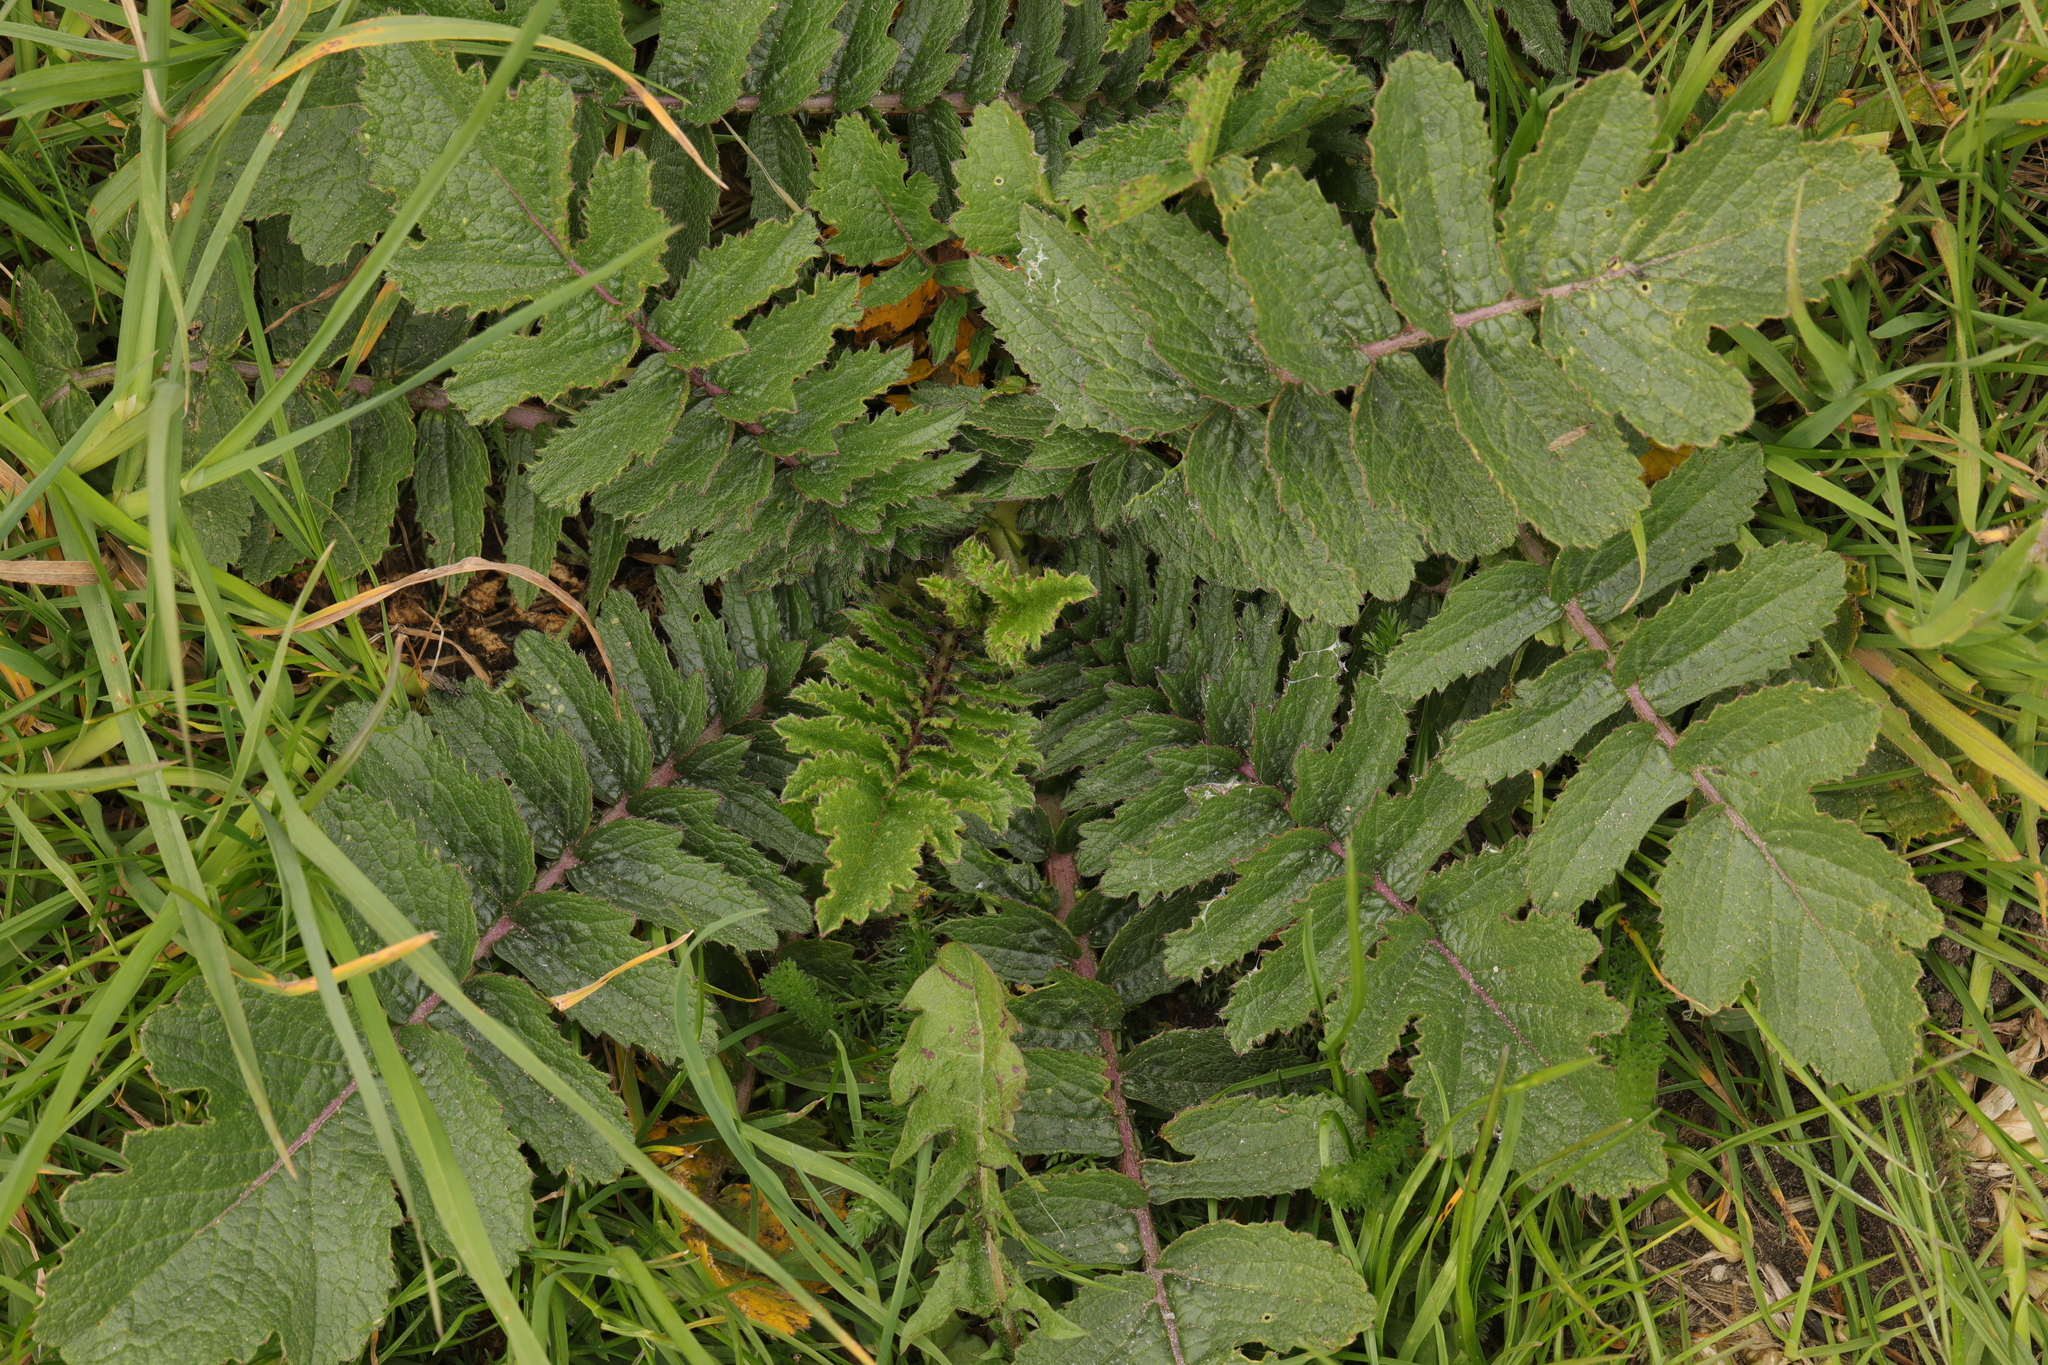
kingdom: Plantae
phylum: Tracheophyta
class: Magnoliopsida
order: Brassicales
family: Brassicaceae
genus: Raphanus
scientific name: Raphanus raphanistrum
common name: Wild radish
